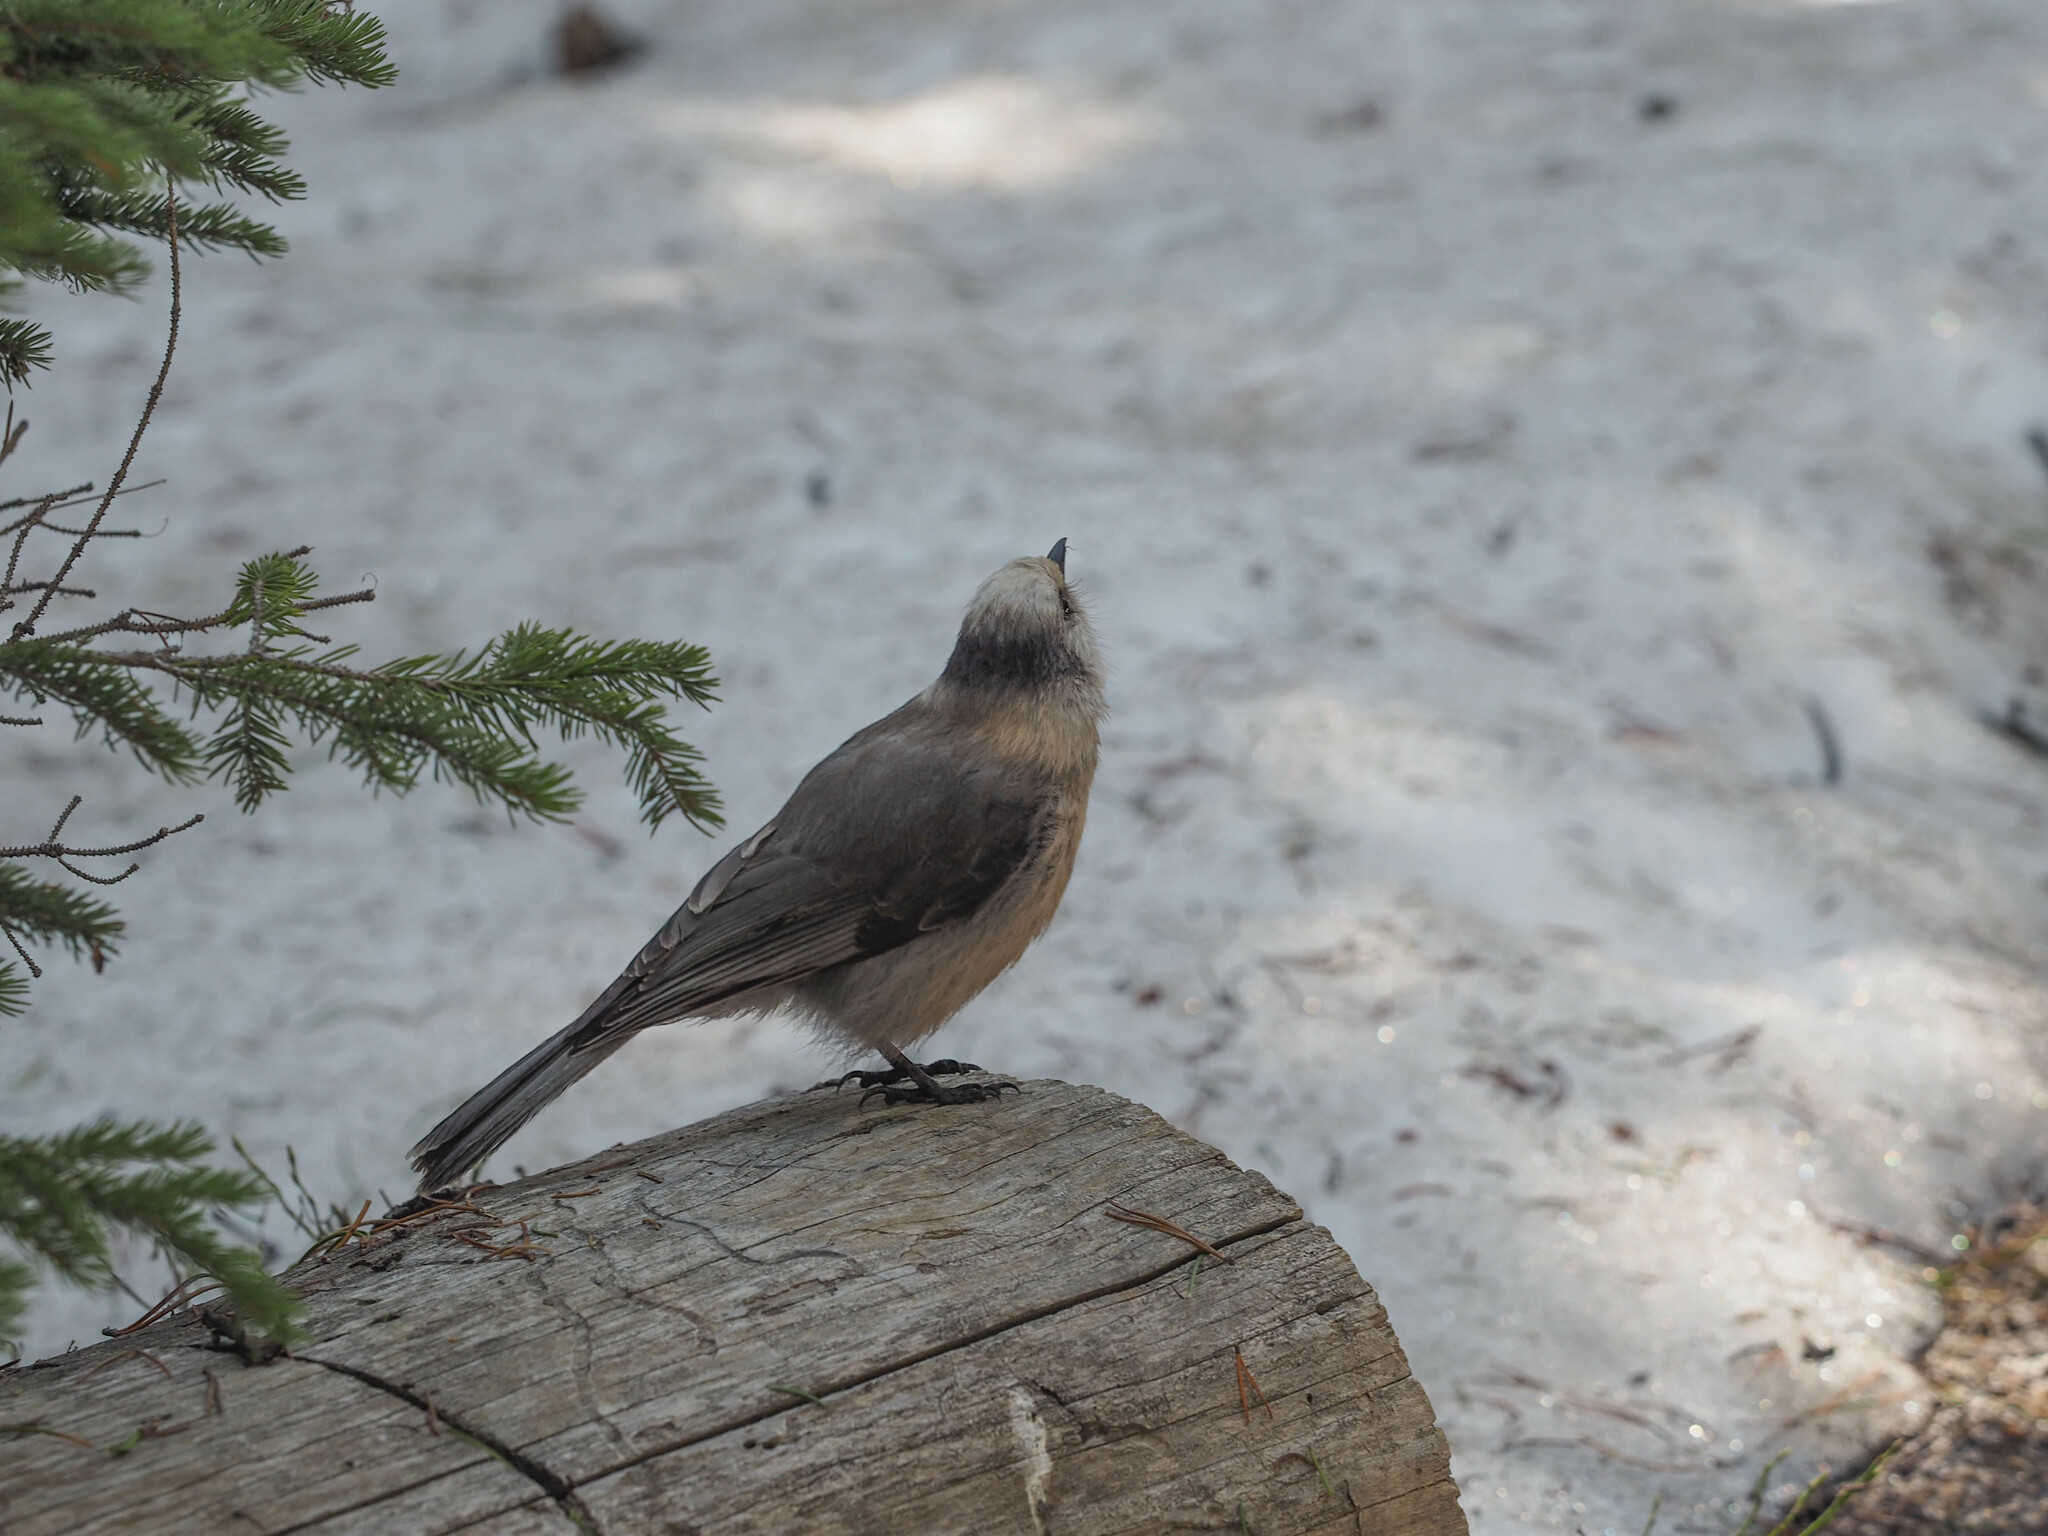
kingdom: Animalia
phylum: Chordata
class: Aves
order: Passeriformes
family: Corvidae
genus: Perisoreus
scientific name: Perisoreus canadensis
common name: Gray jay
